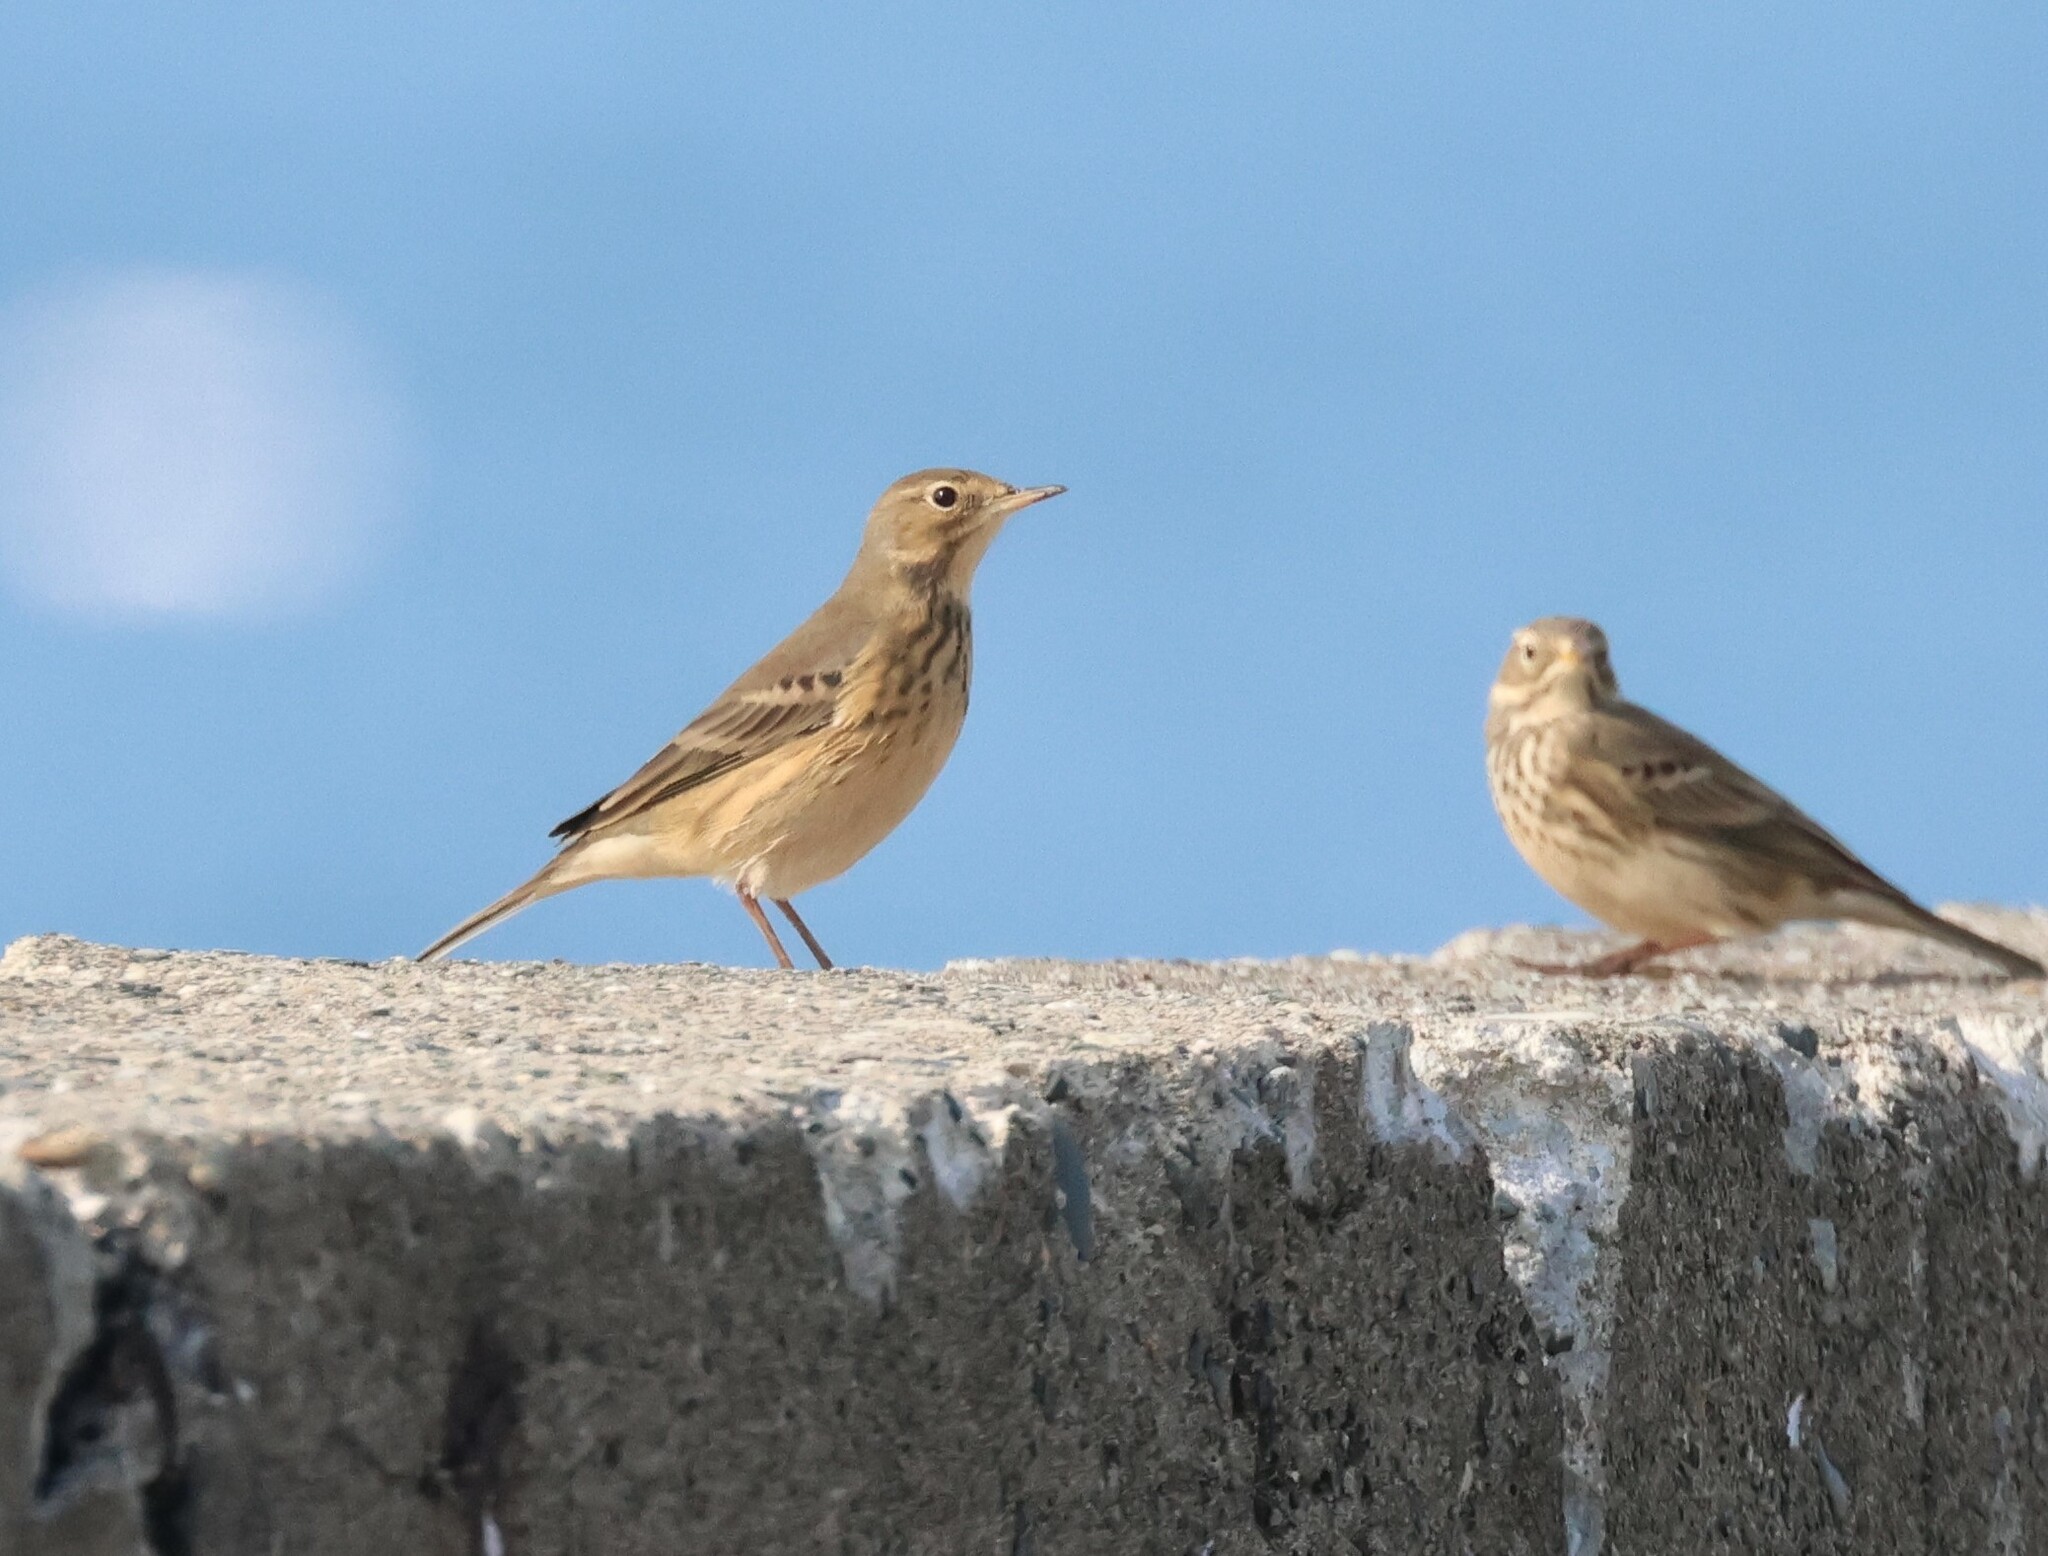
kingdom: Animalia
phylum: Chordata
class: Aves
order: Passeriformes
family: Motacillidae
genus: Anthus
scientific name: Anthus rubescens
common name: Buff-bellied pipit
